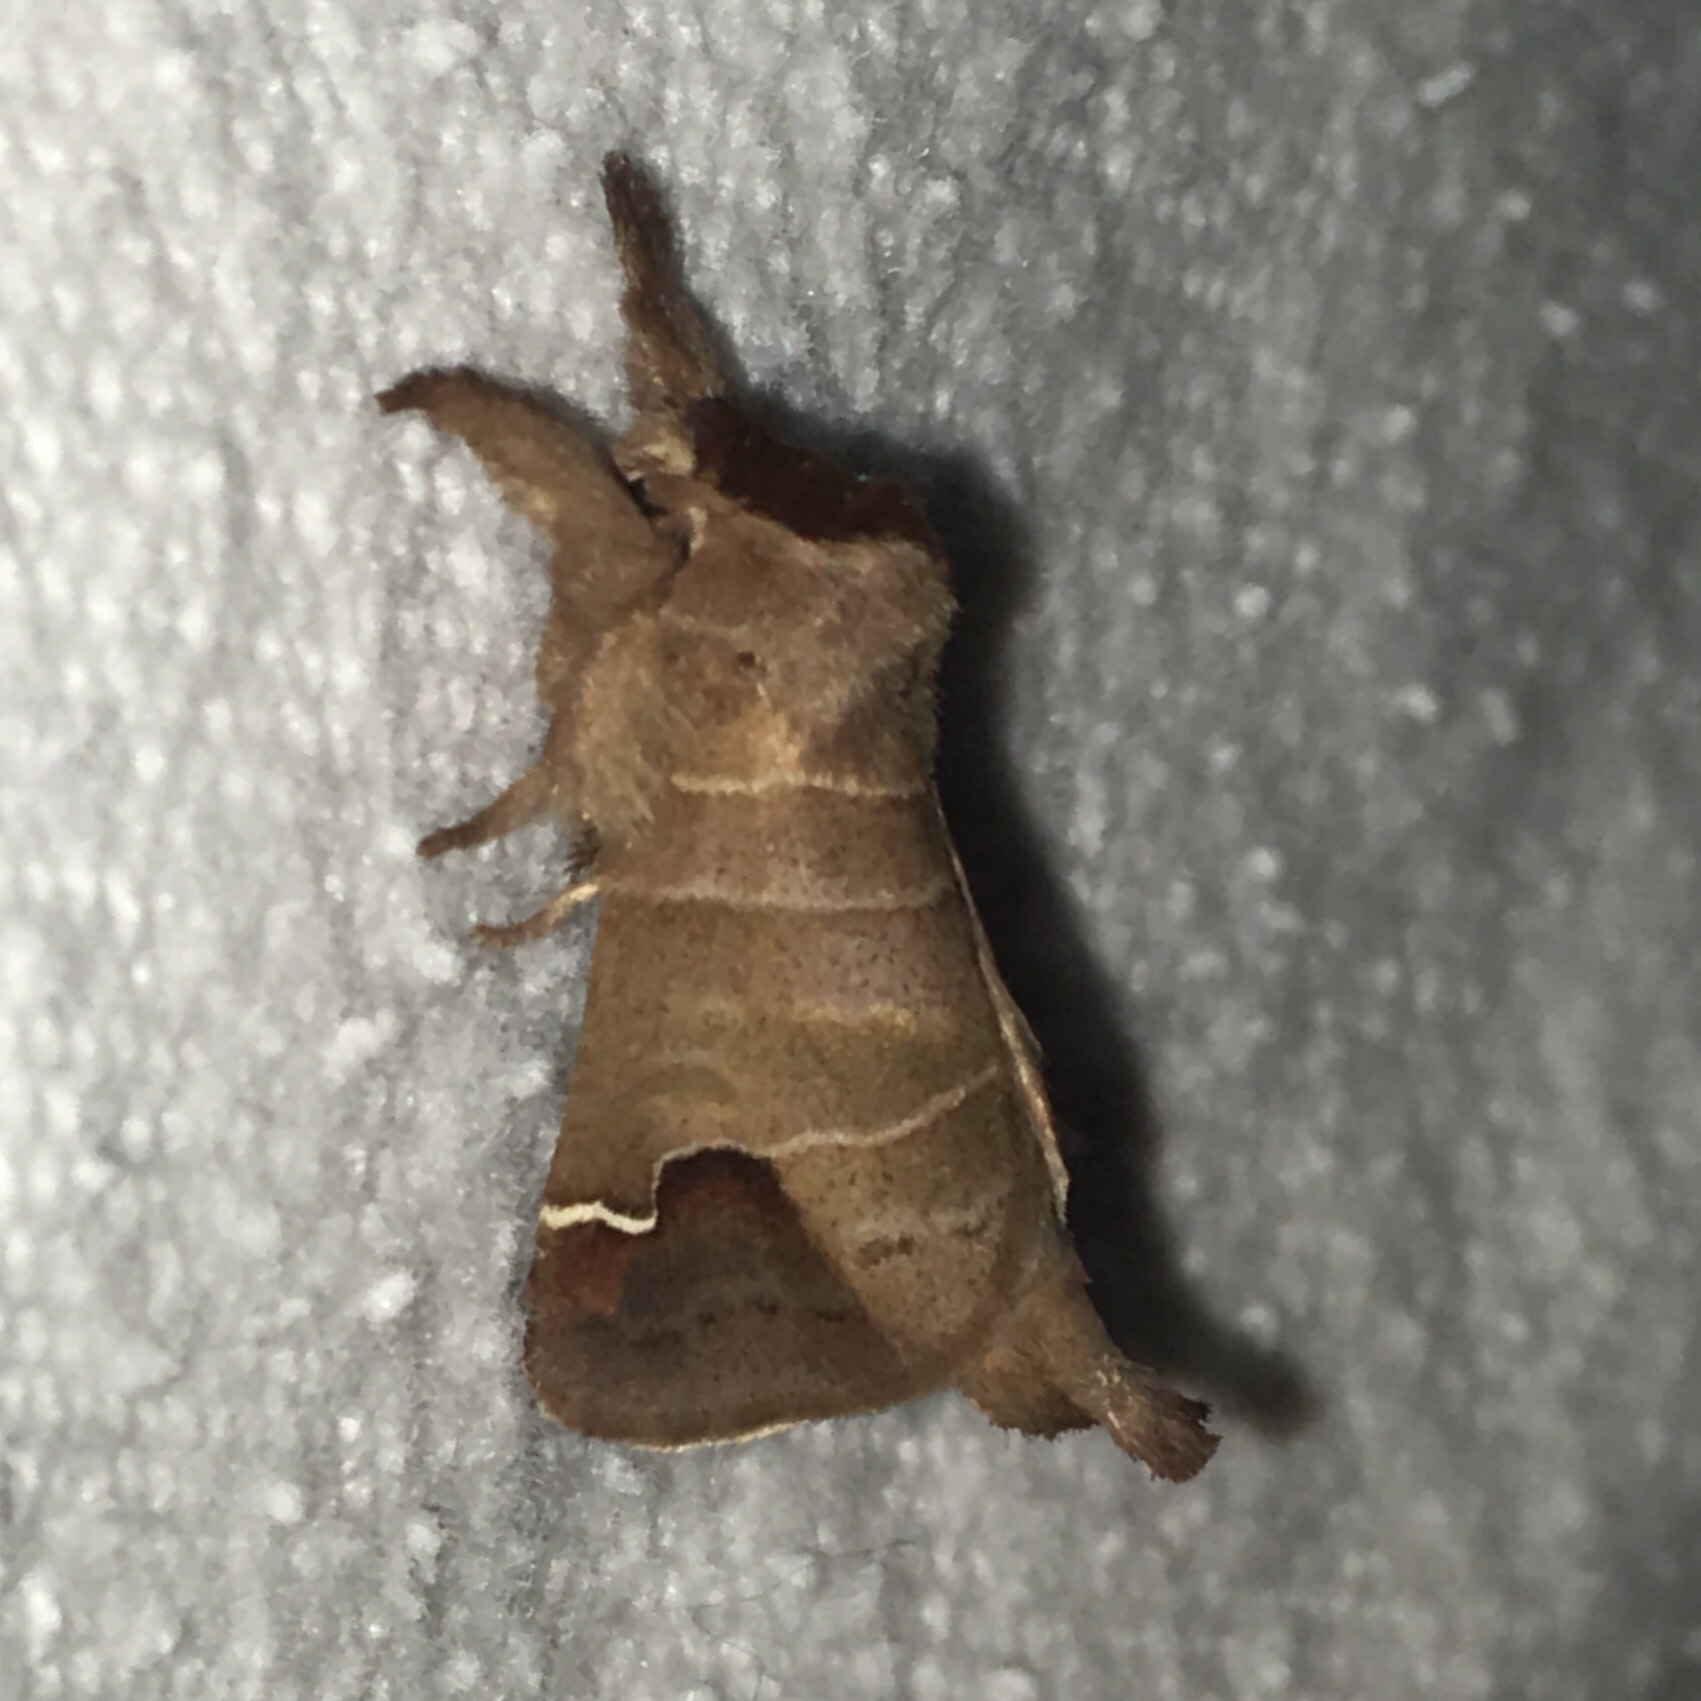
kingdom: Animalia
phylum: Arthropoda
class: Insecta
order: Lepidoptera
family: Notodontidae
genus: Clostera
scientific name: Clostera albosigma
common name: Sigmoid prominent
